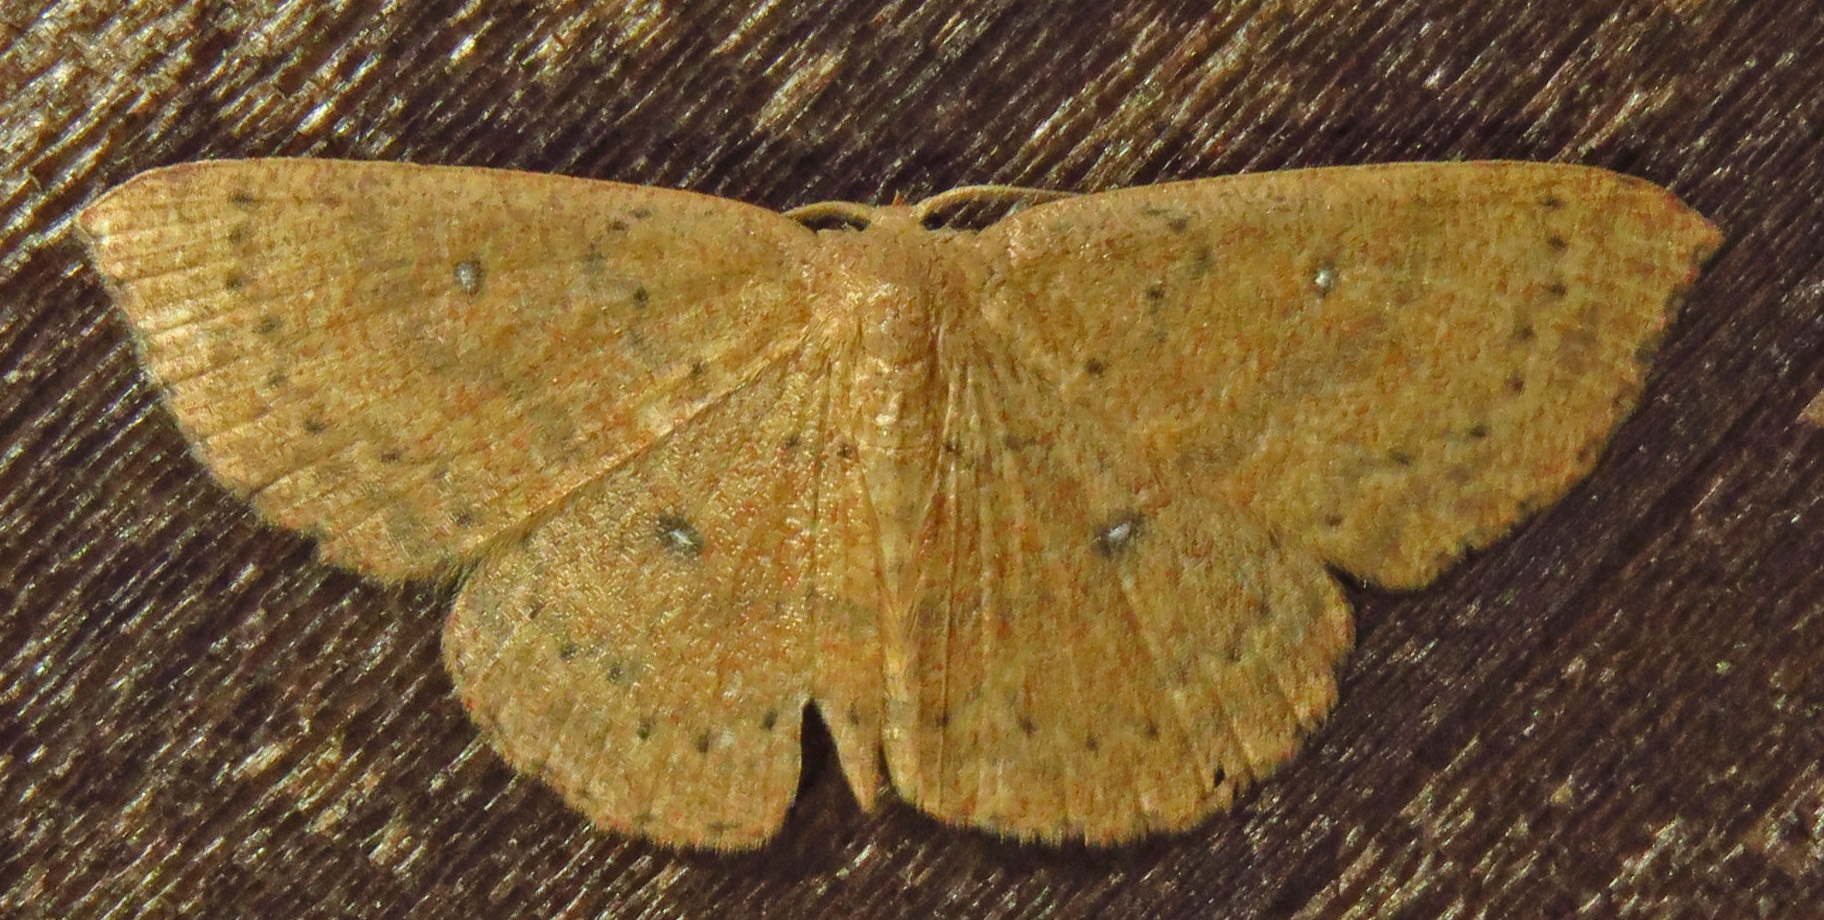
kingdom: Animalia
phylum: Arthropoda
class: Insecta
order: Lepidoptera
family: Geometridae
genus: Cyclophora
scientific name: Cyclophora packardi
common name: Packard's wave
